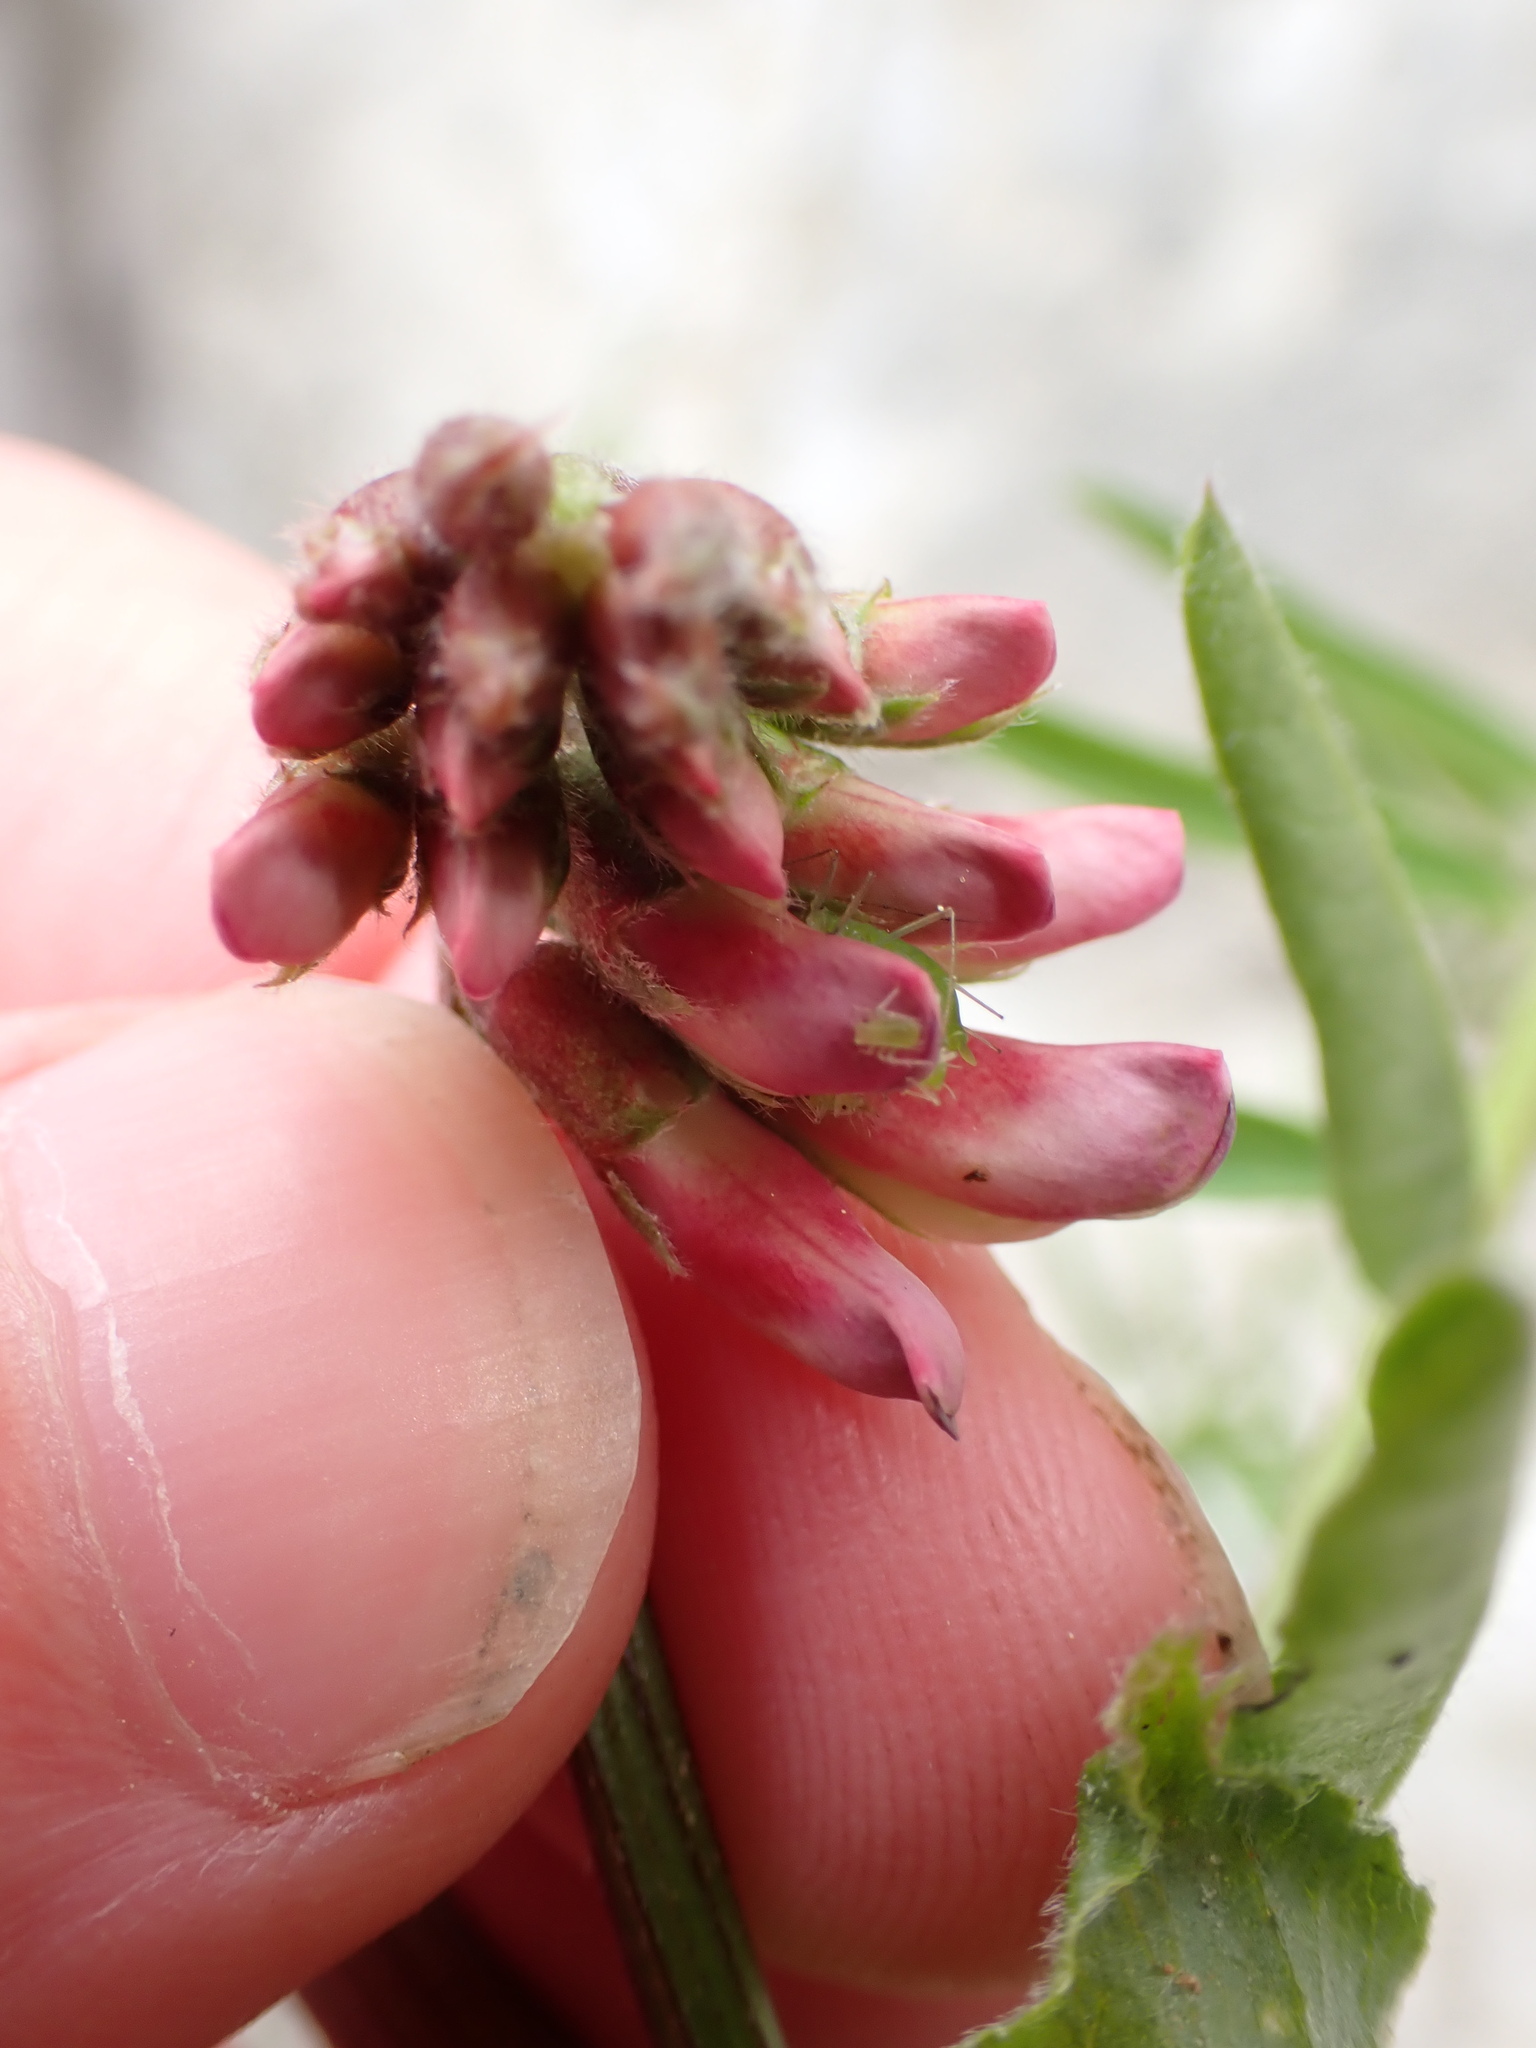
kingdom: Plantae
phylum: Tracheophyta
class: Magnoliopsida
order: Fabales
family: Fabaceae
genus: Vicia
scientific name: Vicia
